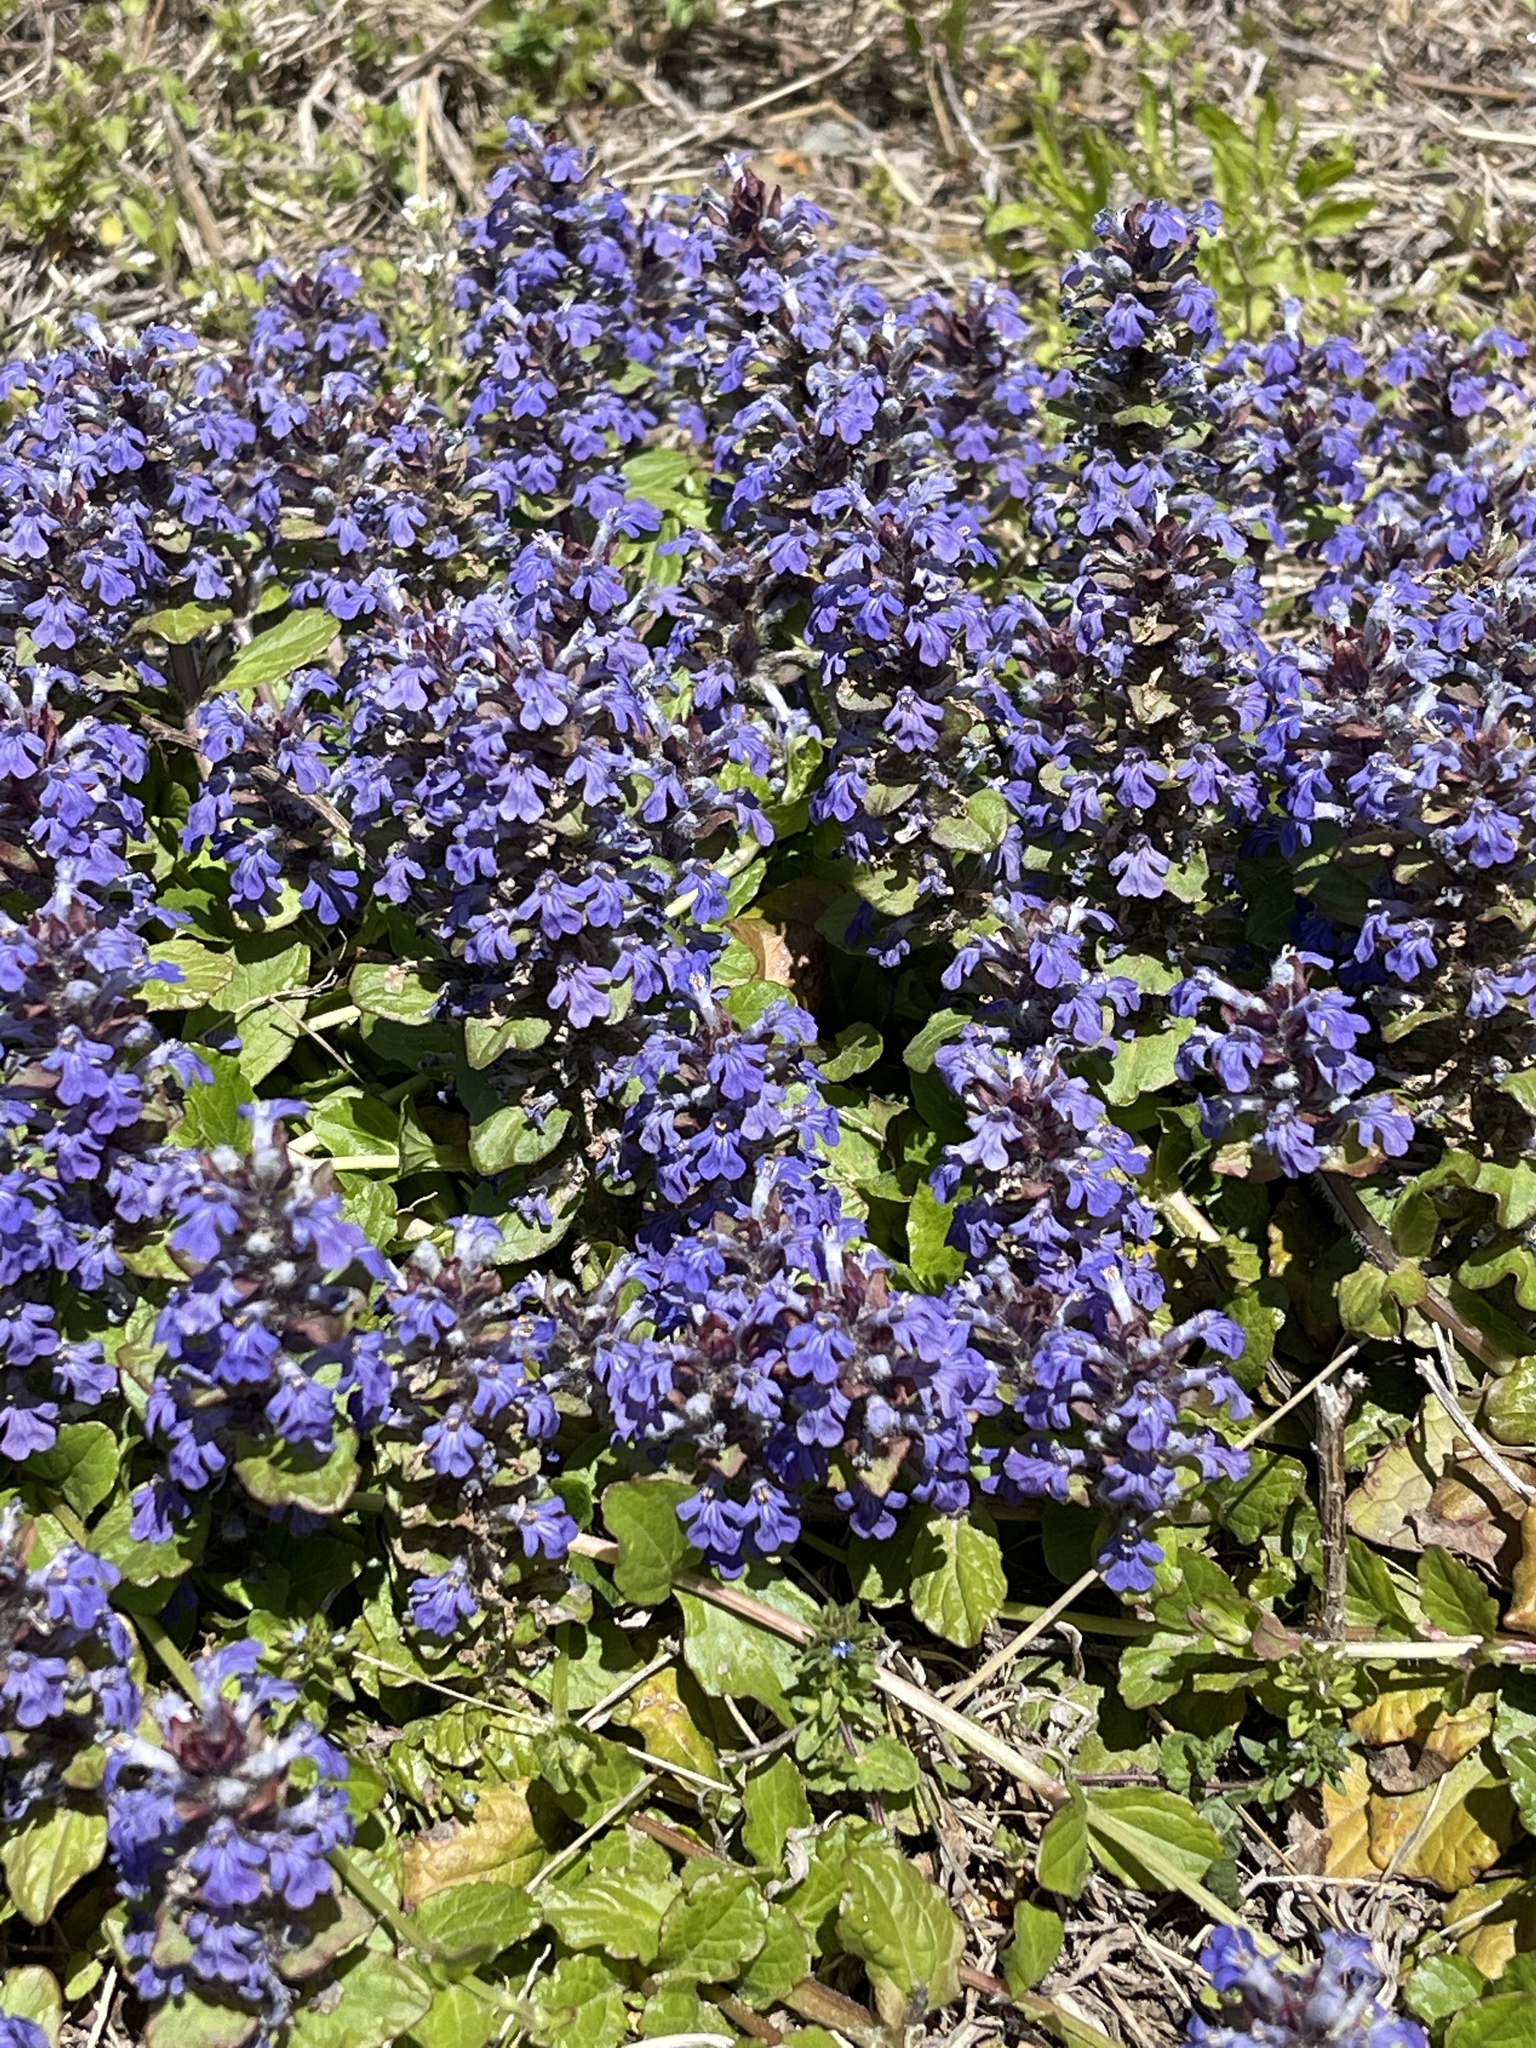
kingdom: Plantae
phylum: Tracheophyta
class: Magnoliopsida
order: Lamiales
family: Lamiaceae
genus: Ajuga
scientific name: Ajuga reptans
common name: Bugle
